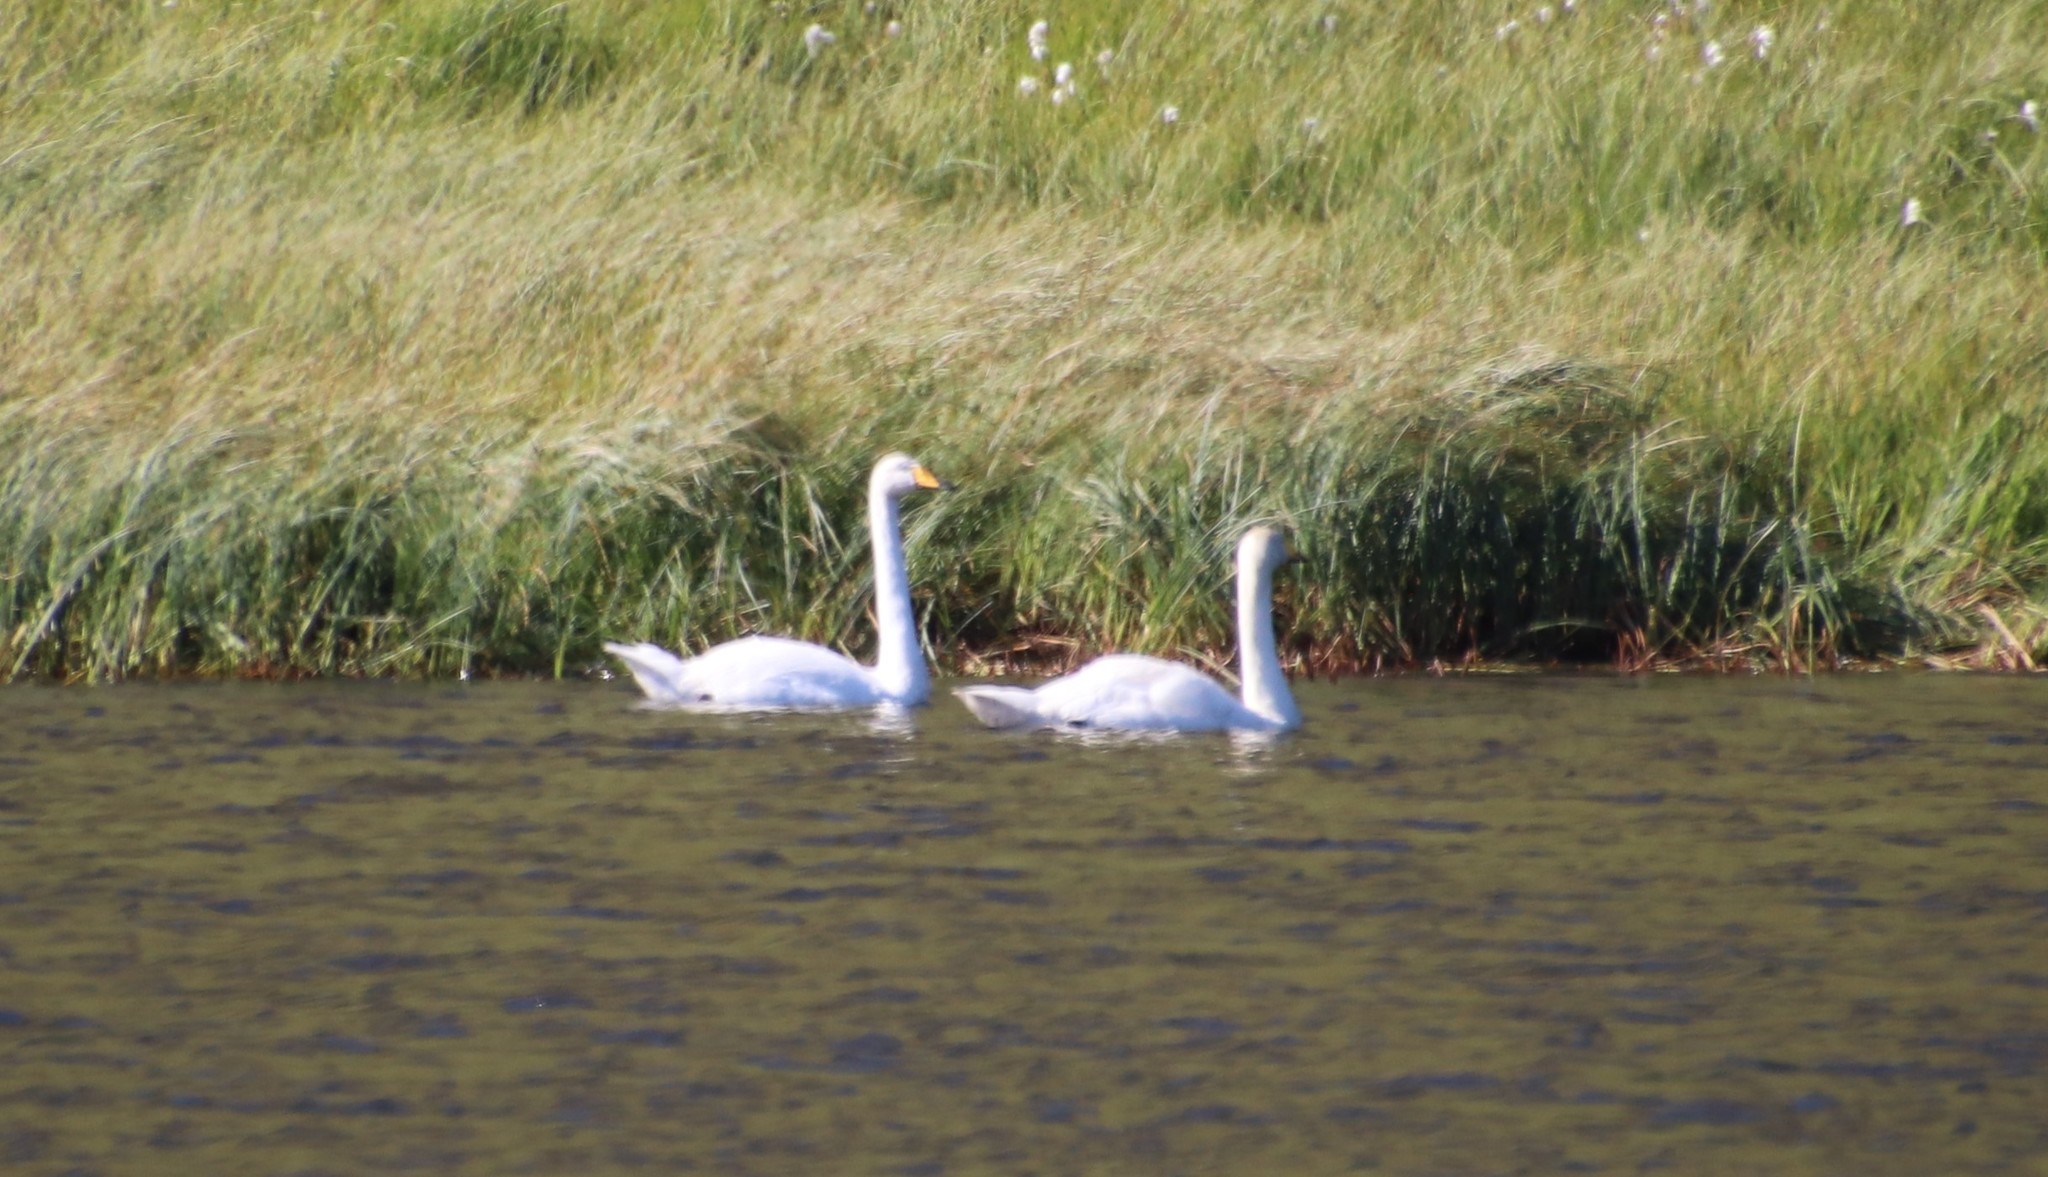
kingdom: Animalia
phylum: Chordata
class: Aves
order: Anseriformes
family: Anatidae
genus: Cygnus
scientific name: Cygnus cygnus
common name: Whooper swan
